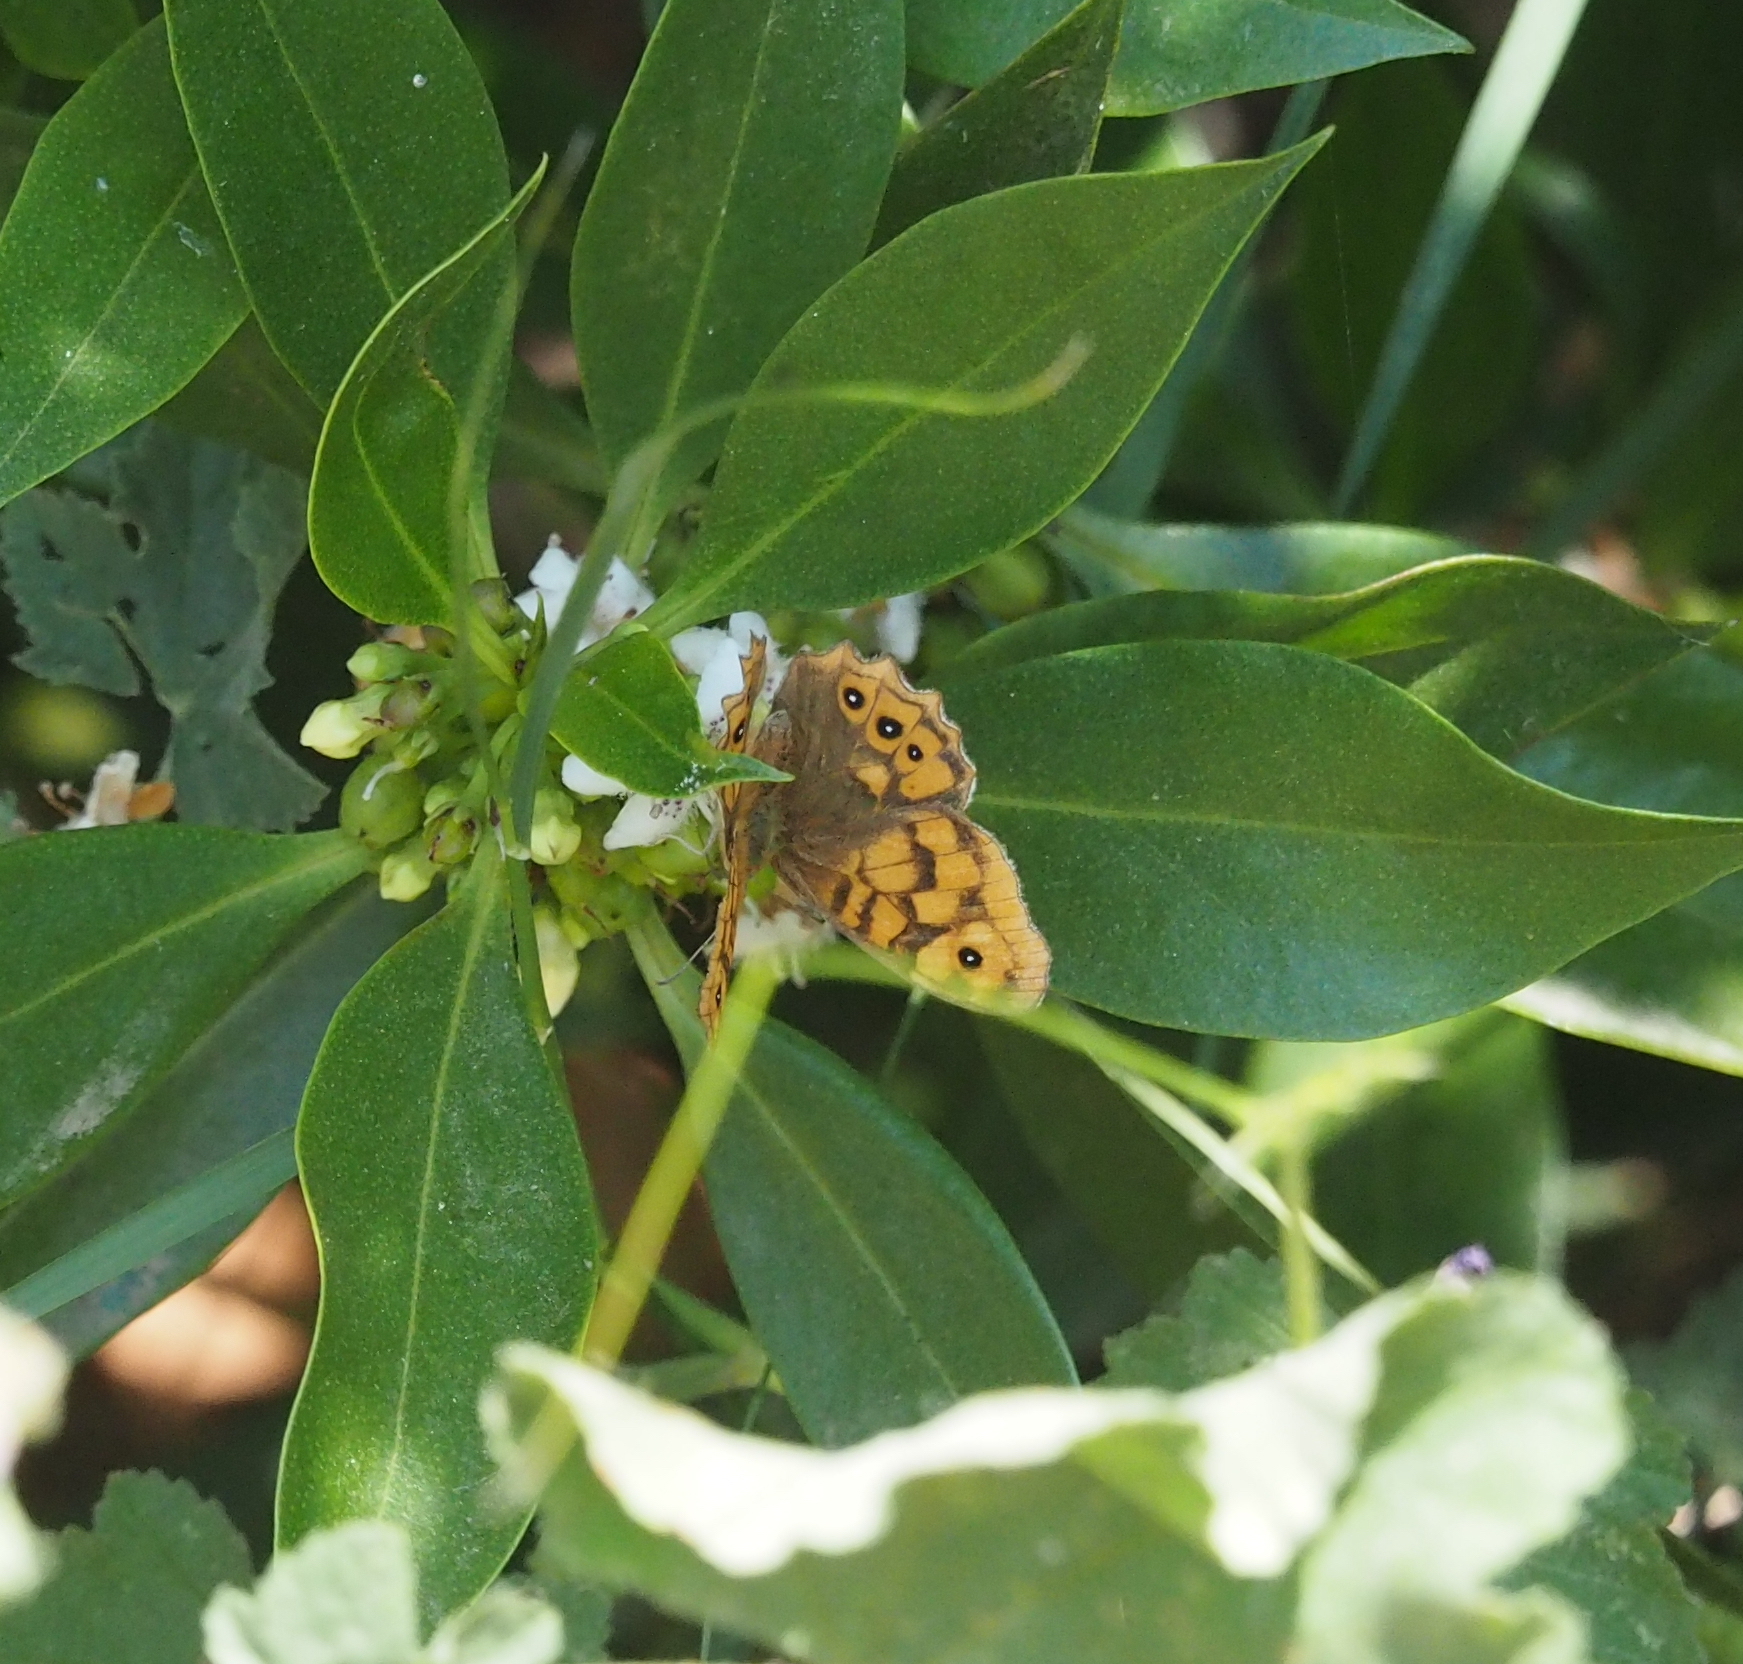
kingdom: Animalia
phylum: Arthropoda
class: Insecta
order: Lepidoptera
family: Nymphalidae
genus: Pararge
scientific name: Pararge Lasiommata megera
